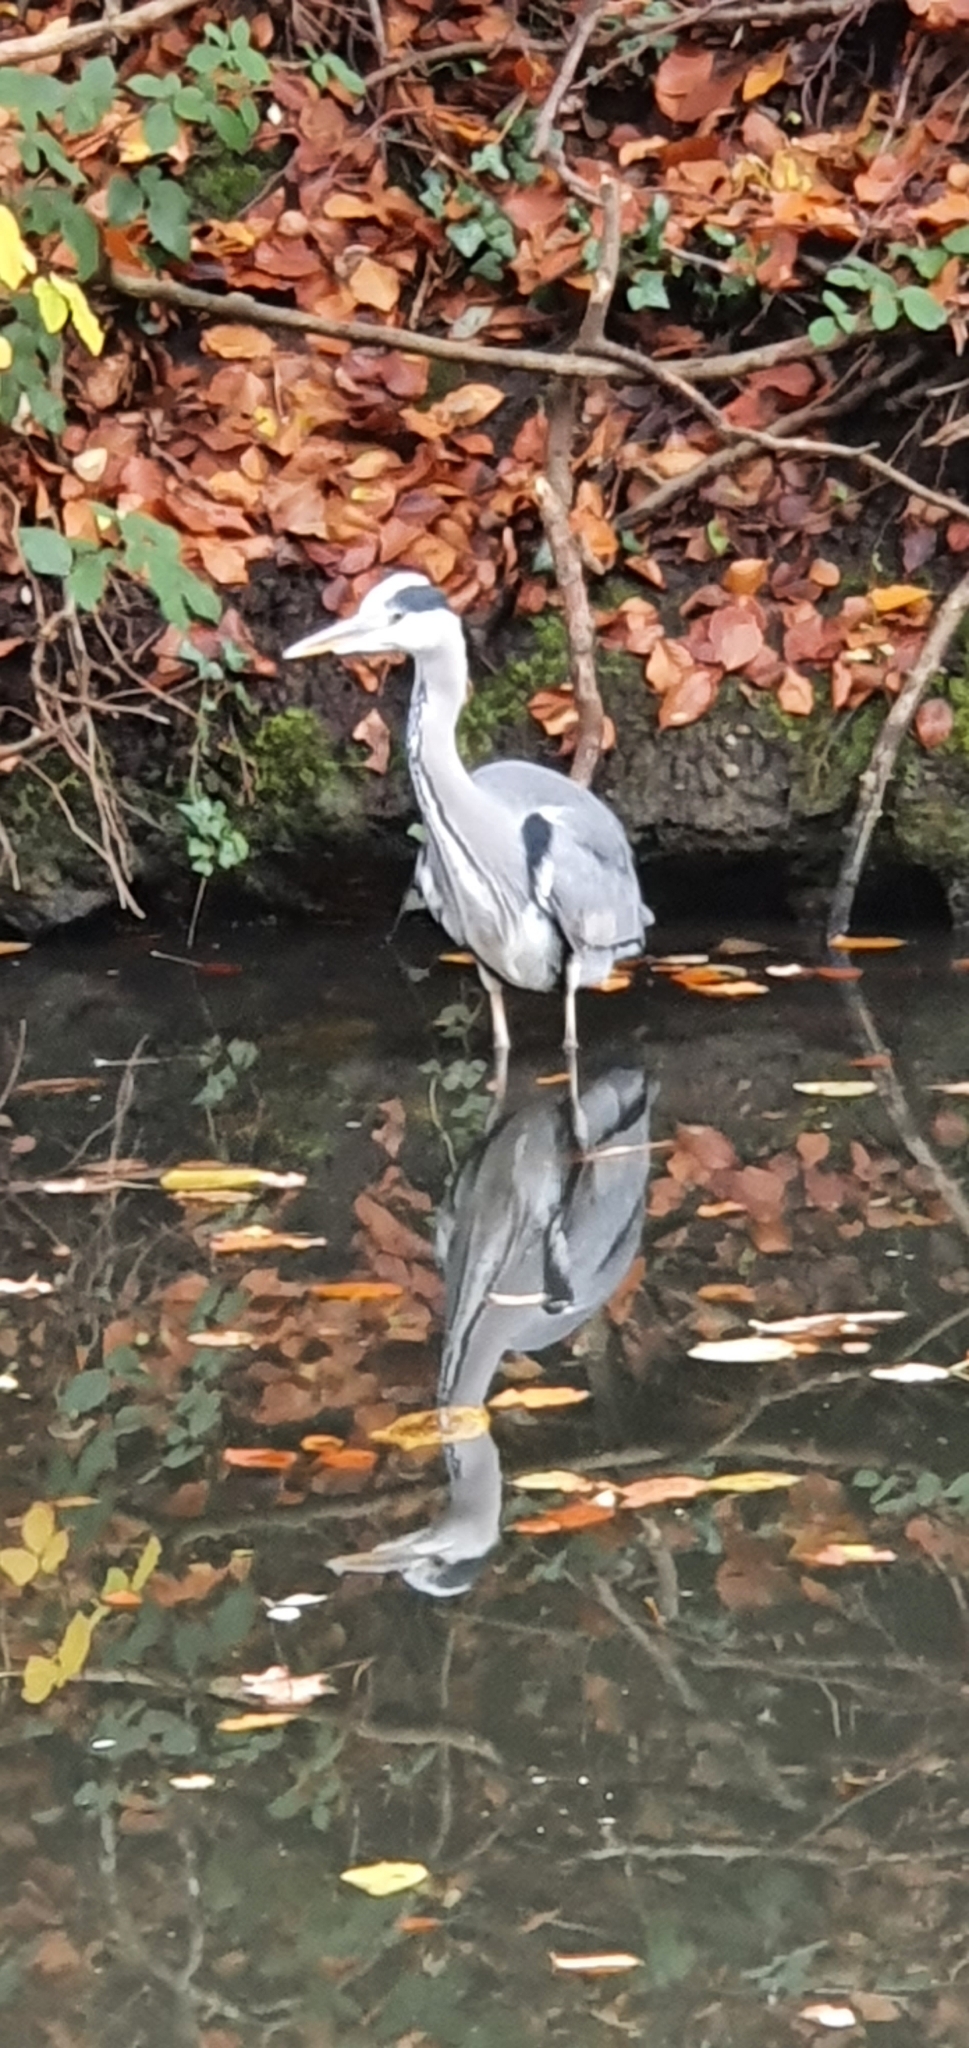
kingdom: Animalia
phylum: Chordata
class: Aves
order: Pelecaniformes
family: Ardeidae
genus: Ardea
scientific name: Ardea cinerea
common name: Grey heron
